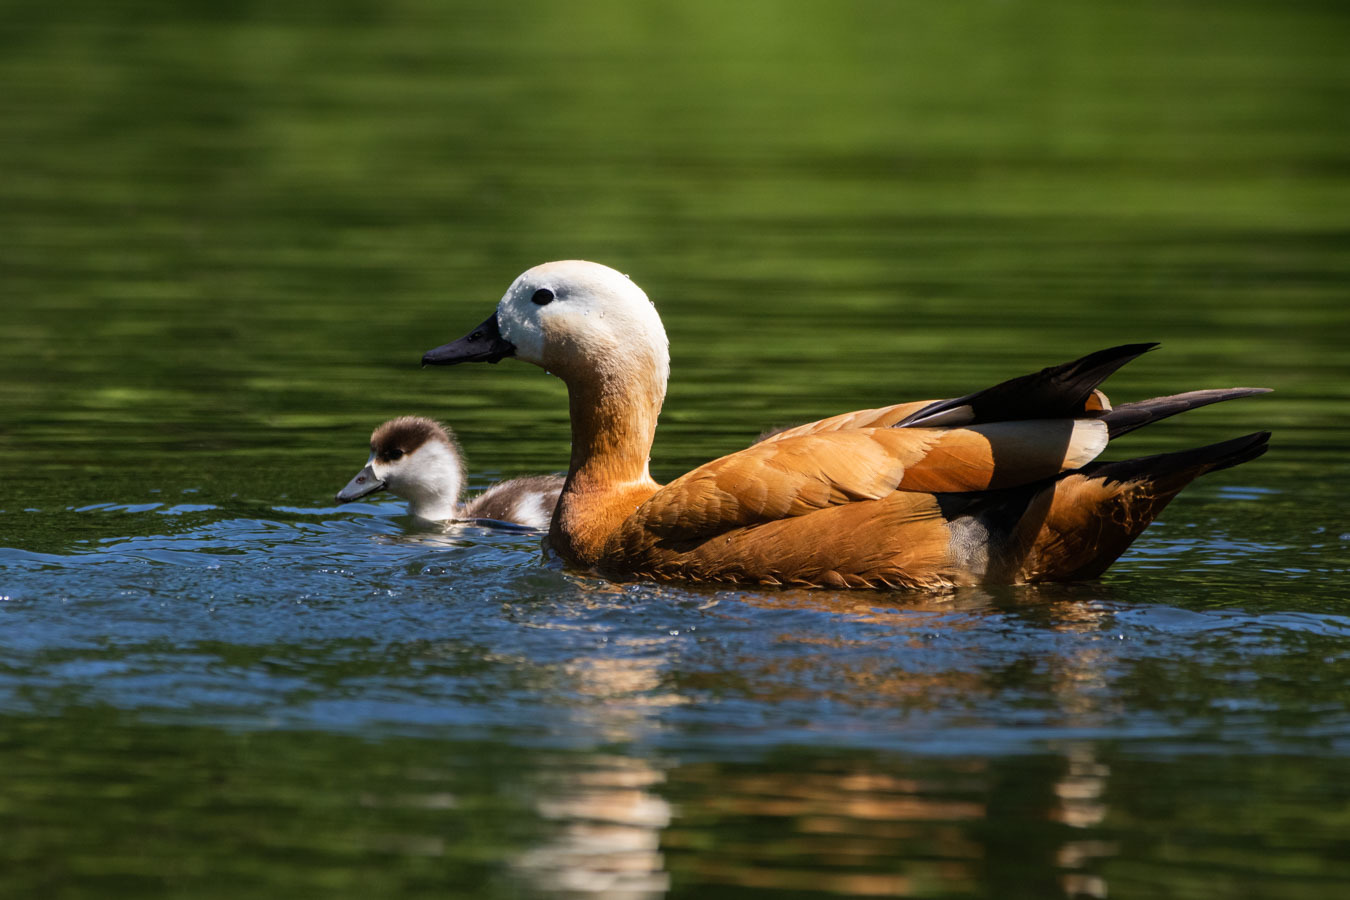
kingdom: Animalia
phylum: Chordata
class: Aves
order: Anseriformes
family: Anatidae
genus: Tadorna
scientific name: Tadorna ferruginea
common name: Ruddy shelduck
